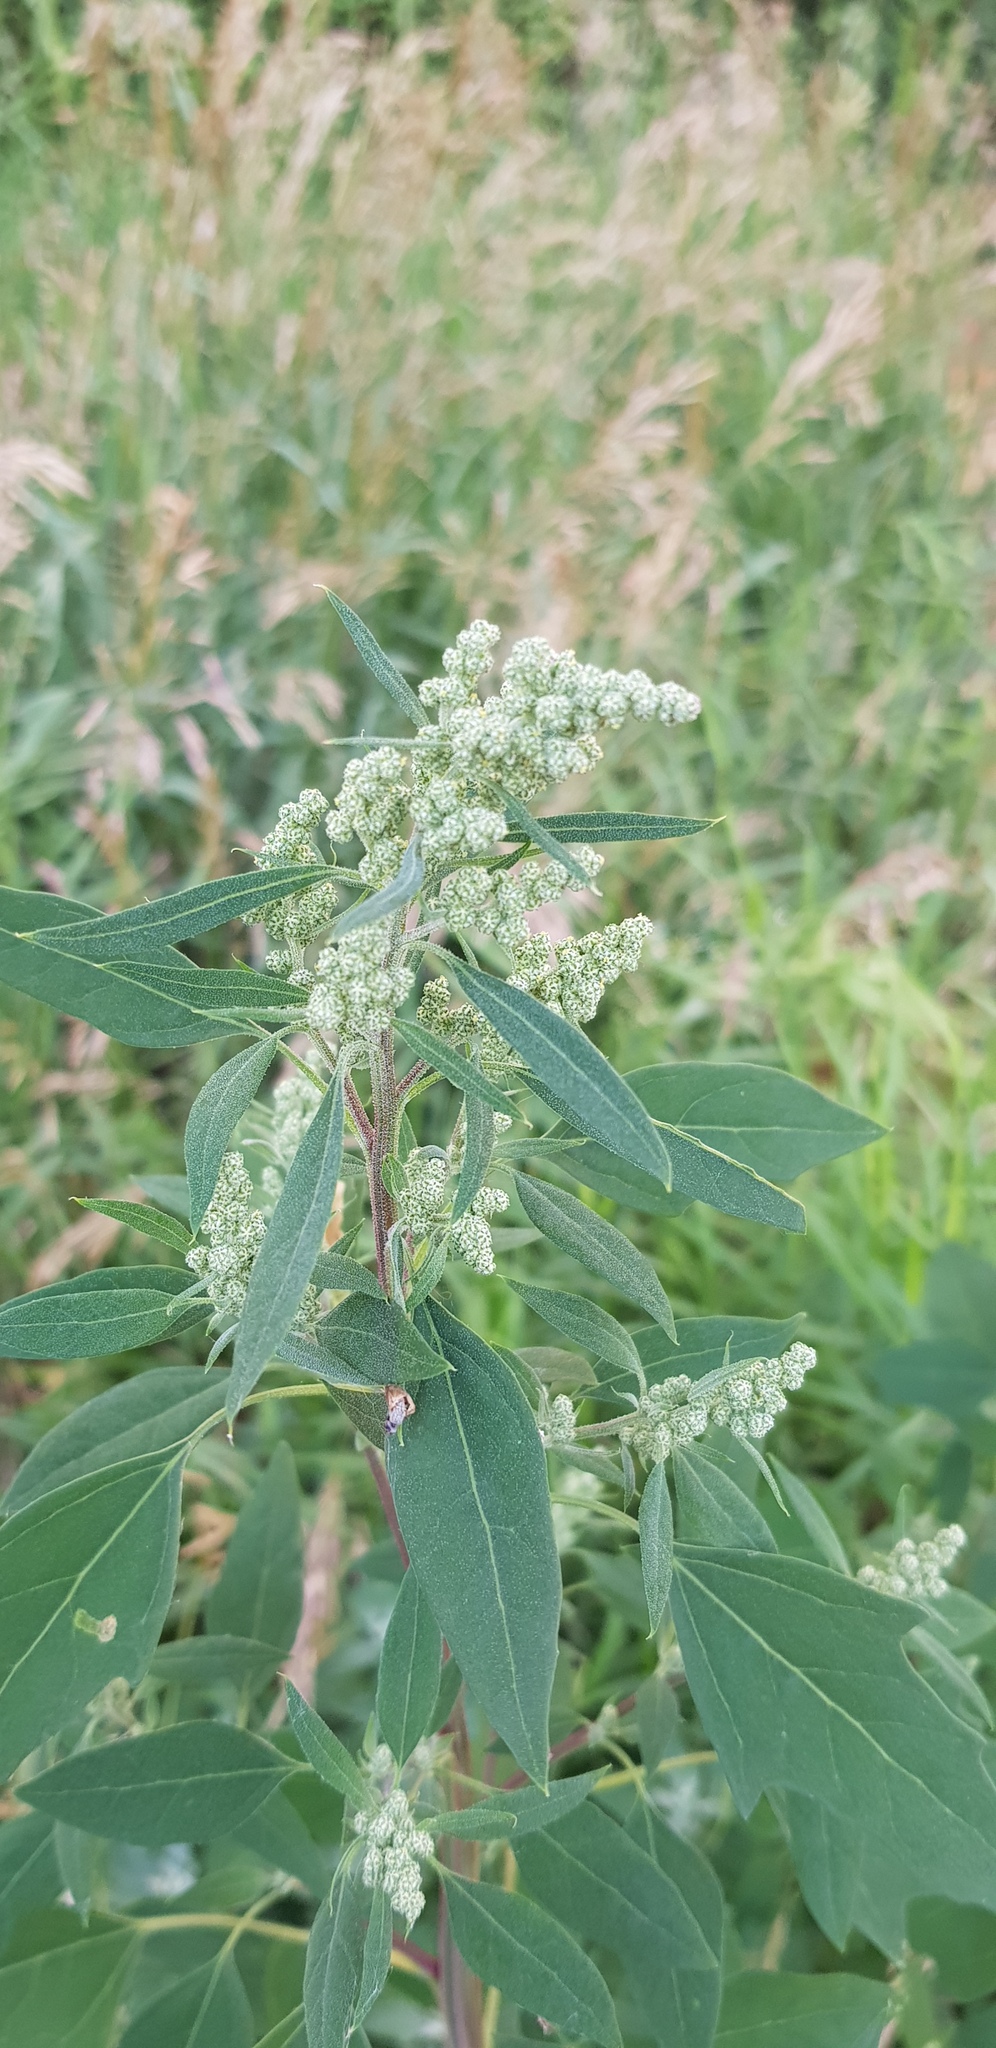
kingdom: Plantae
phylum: Tracheophyta
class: Magnoliopsida
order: Caryophyllales
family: Amaranthaceae
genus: Chenopodium
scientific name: Chenopodium album
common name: Fat-hen
